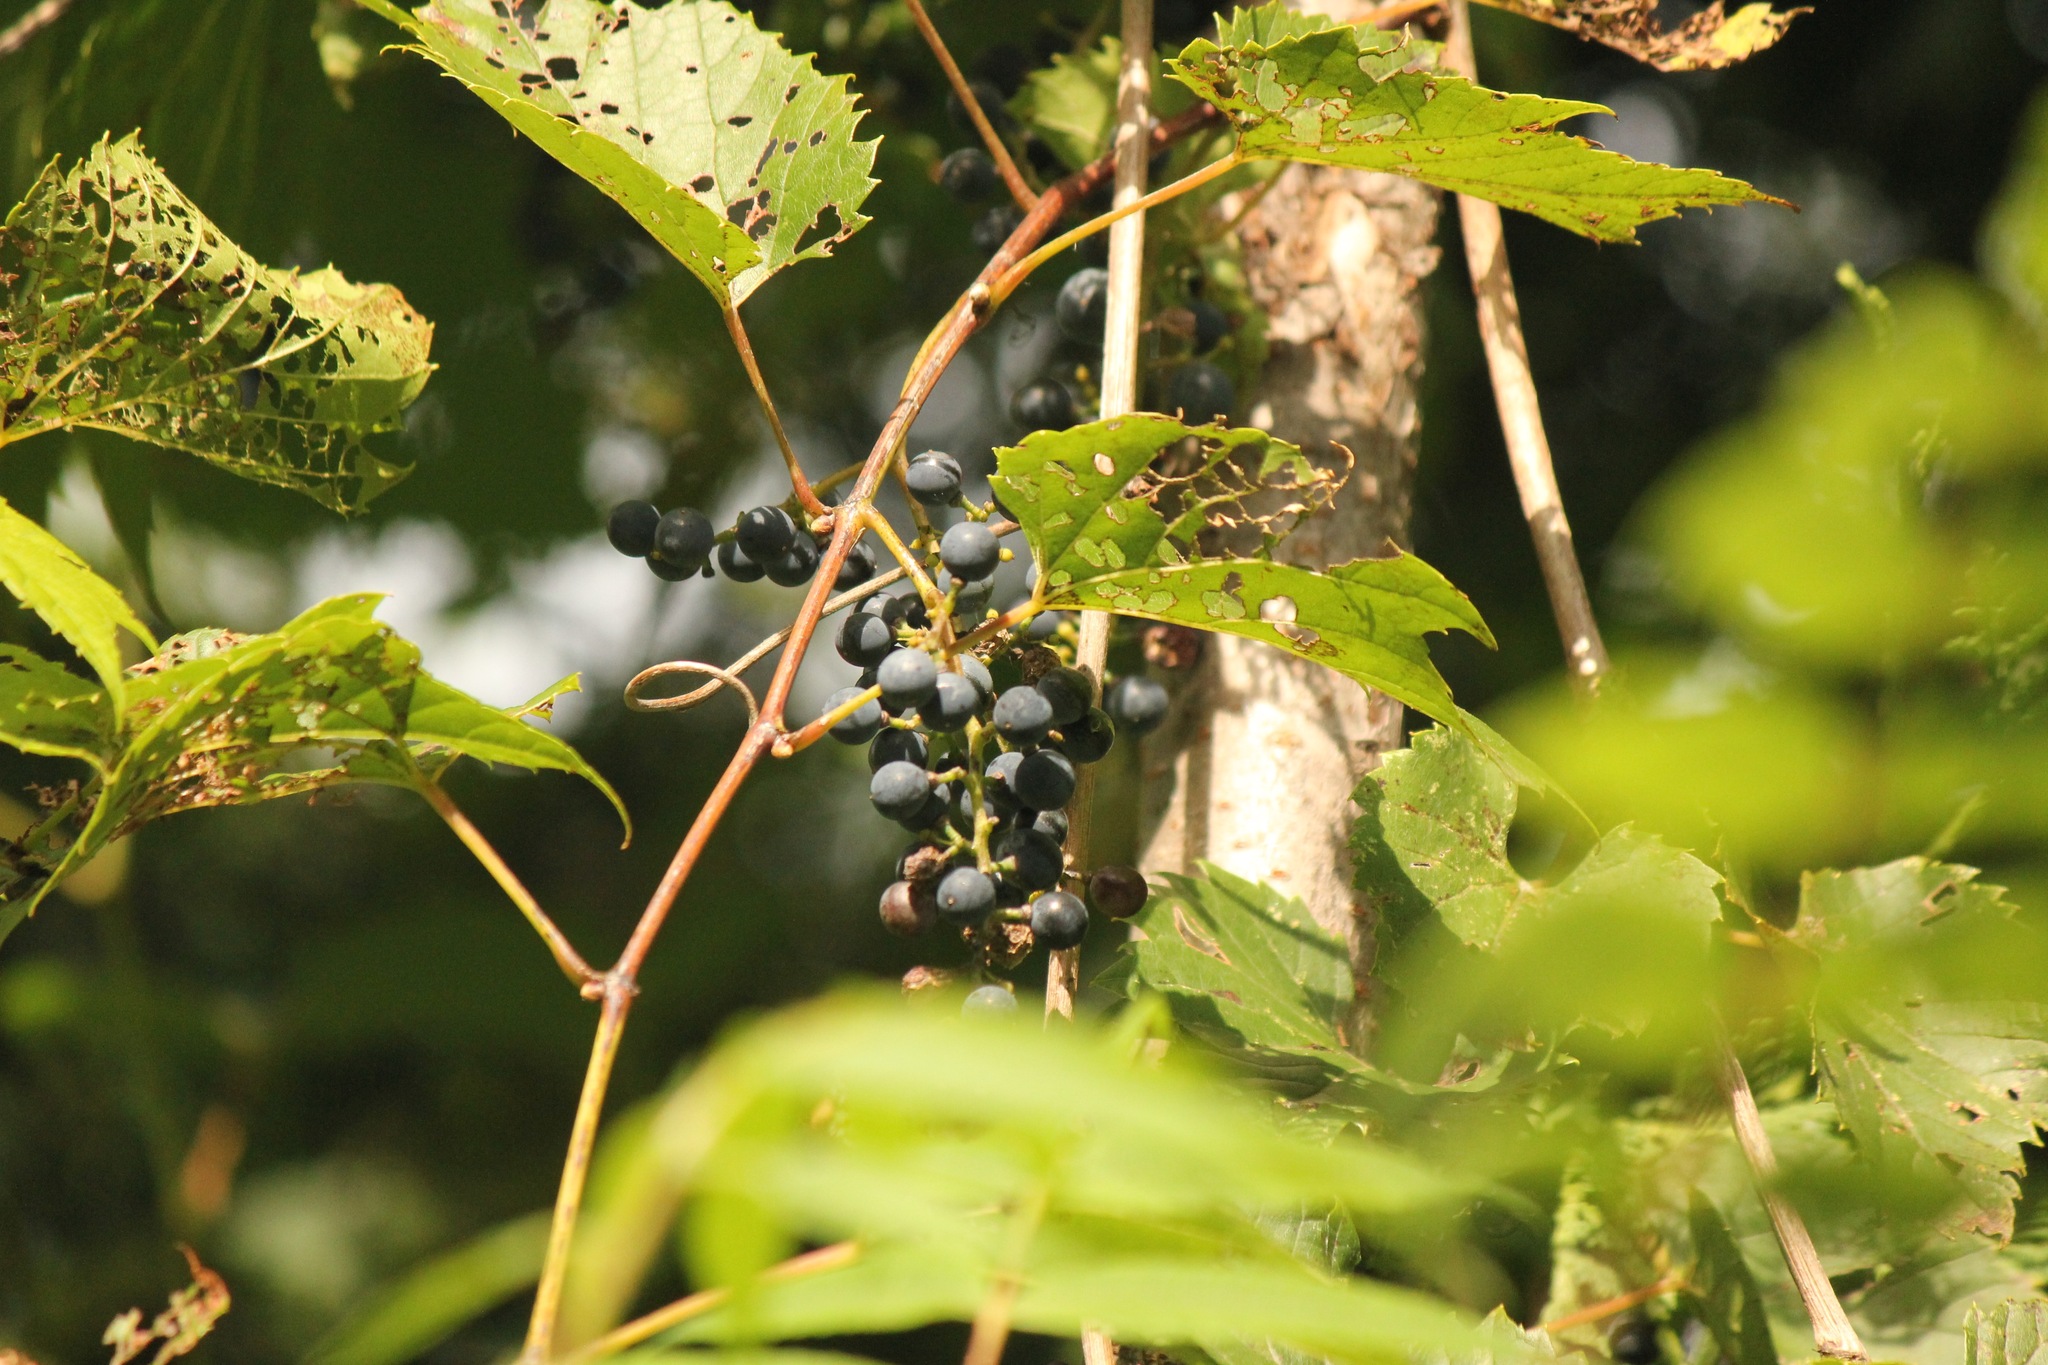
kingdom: Plantae
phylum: Tracheophyta
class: Magnoliopsida
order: Vitales
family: Vitaceae
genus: Vitis
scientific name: Vitis riparia
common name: Frost grape
